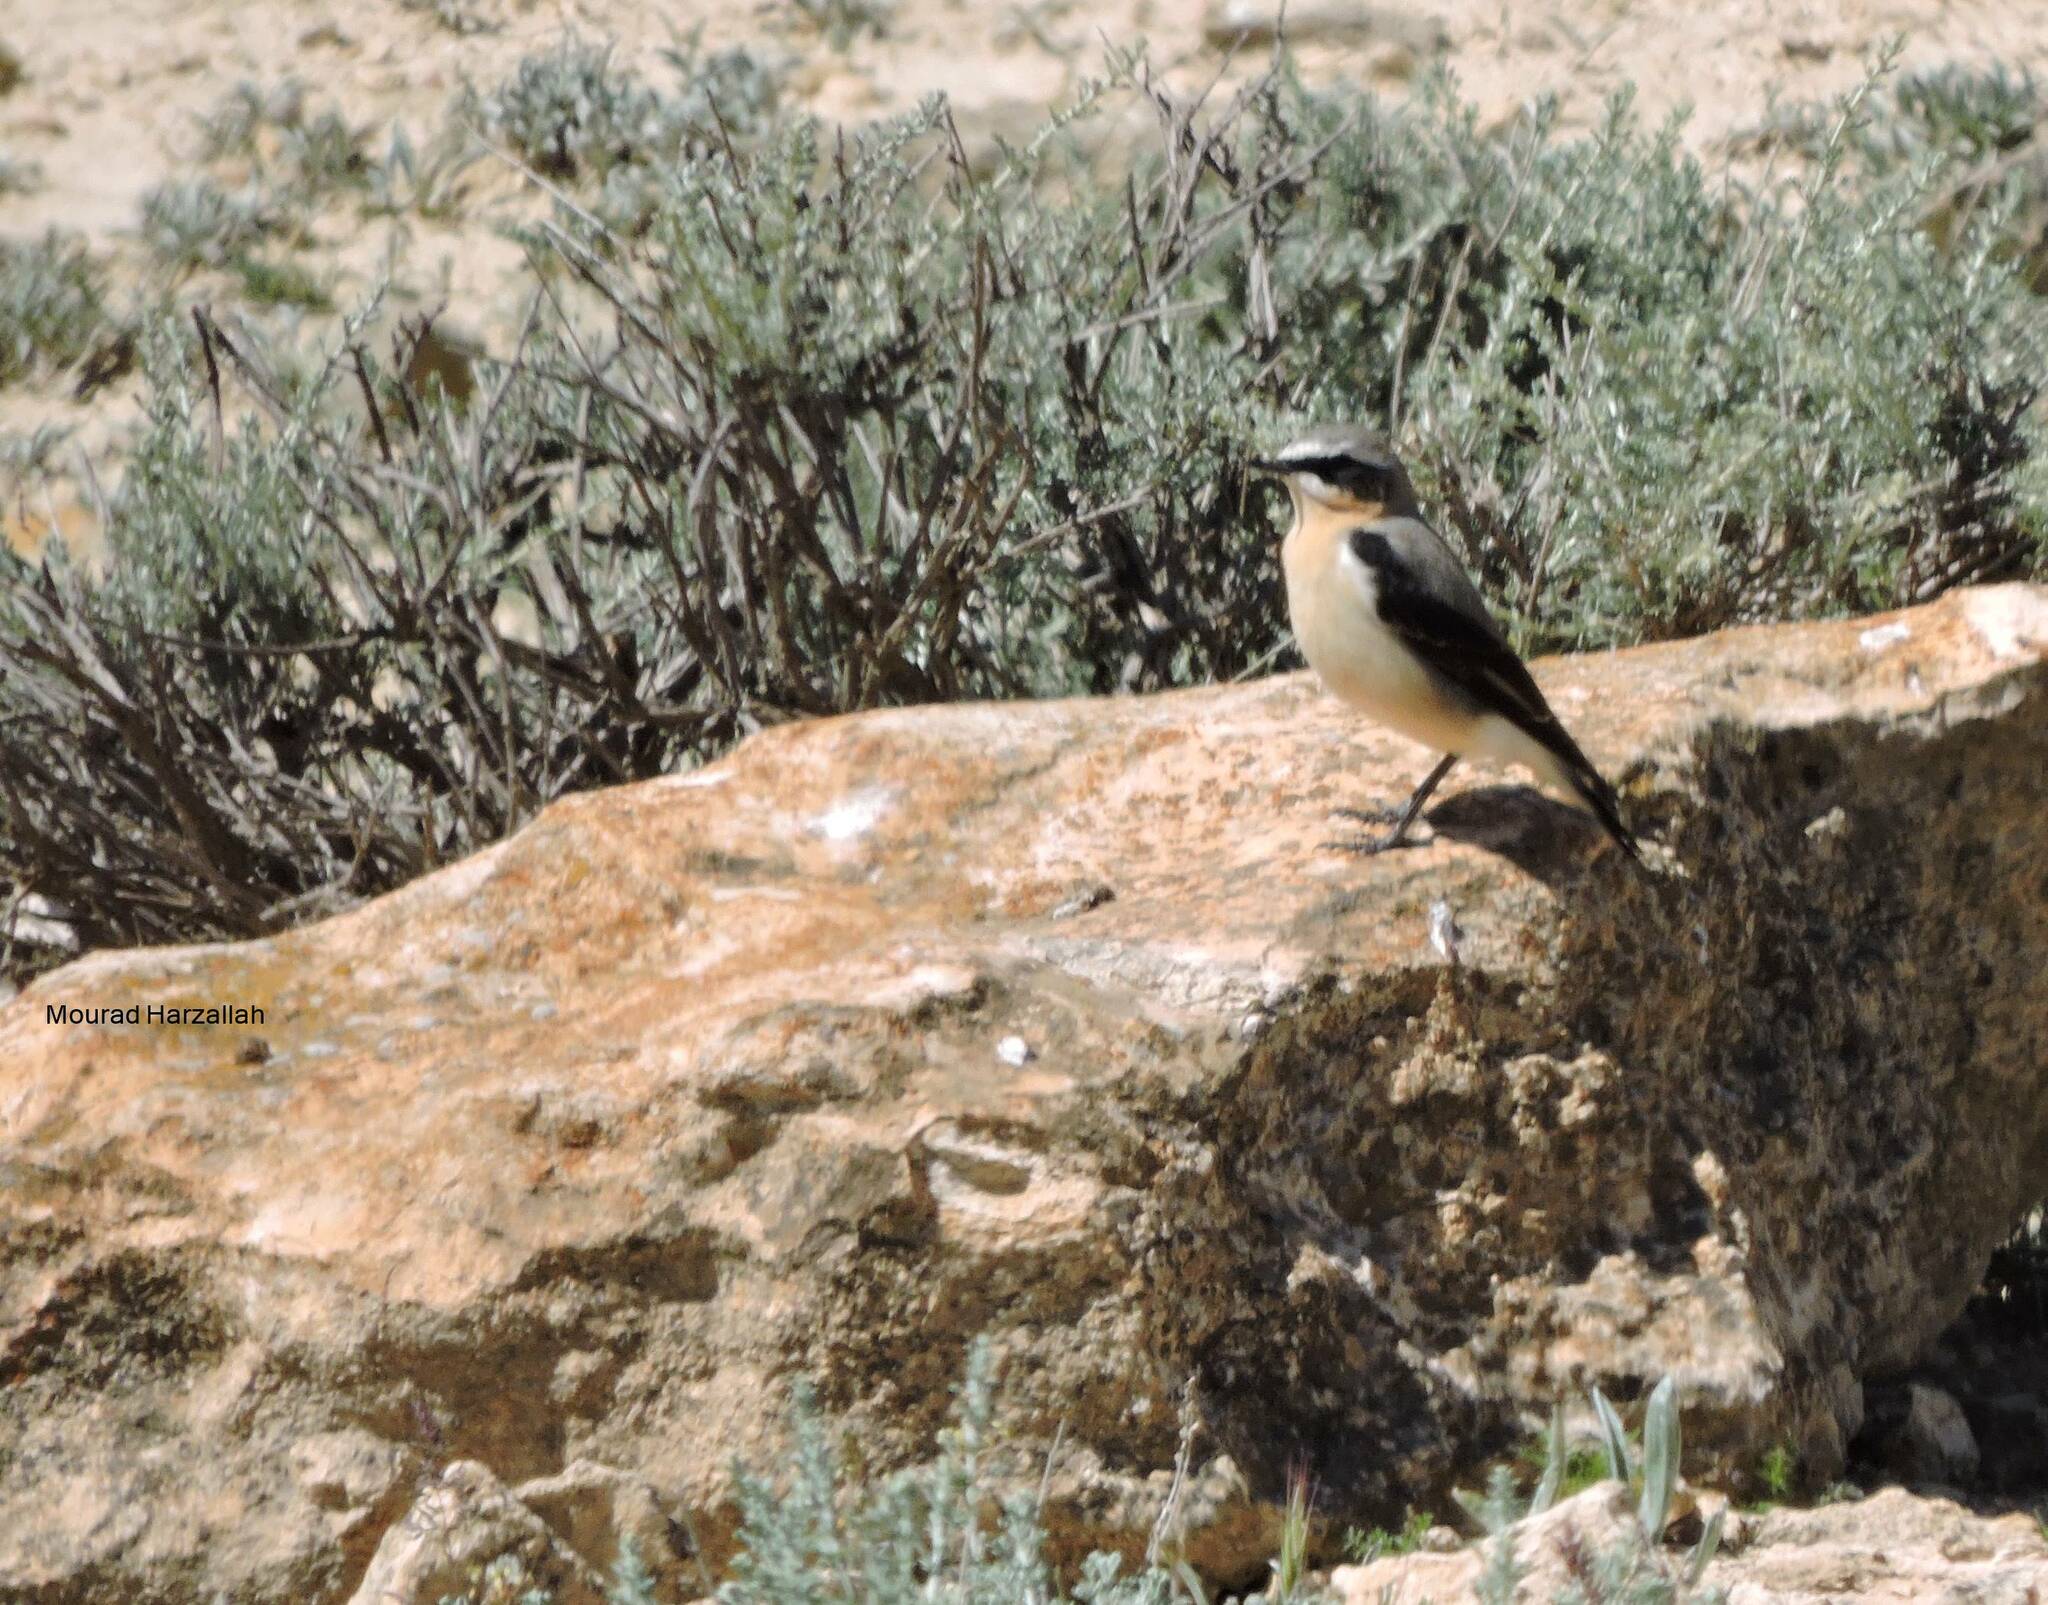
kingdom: Animalia
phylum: Chordata
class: Aves
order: Passeriformes
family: Muscicapidae
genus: Oenanthe
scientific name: Oenanthe oenanthe
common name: Northern wheatear
